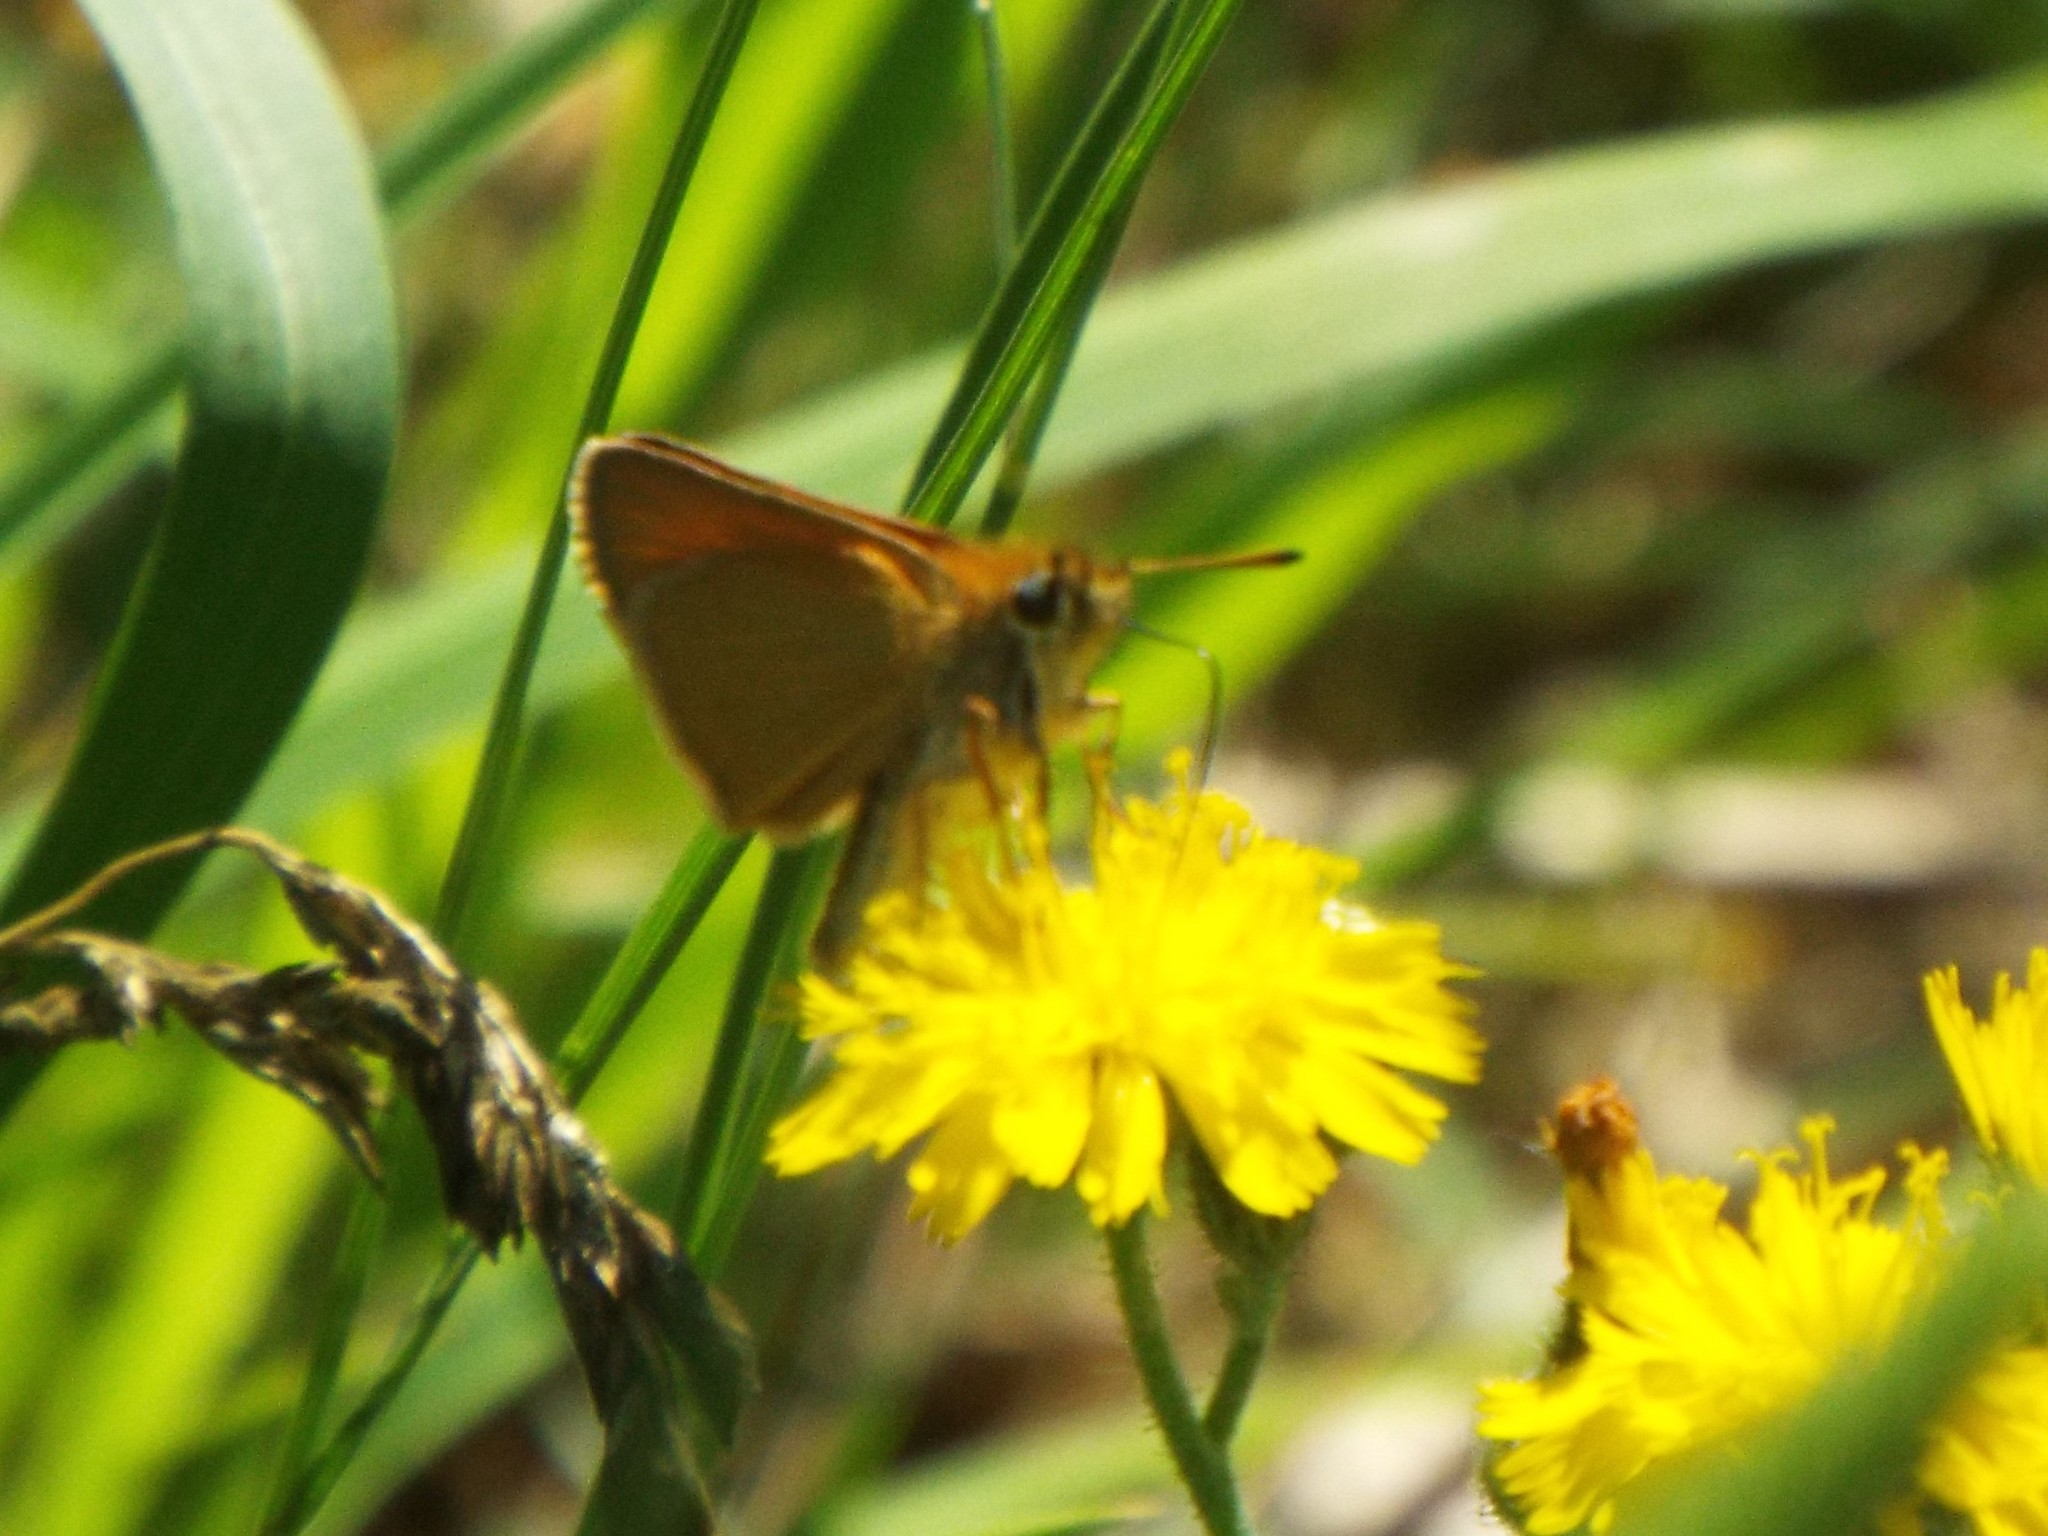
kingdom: Animalia
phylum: Arthropoda
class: Insecta
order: Lepidoptera
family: Hesperiidae
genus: Thymelicus
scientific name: Thymelicus lineola
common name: Essex skipper
